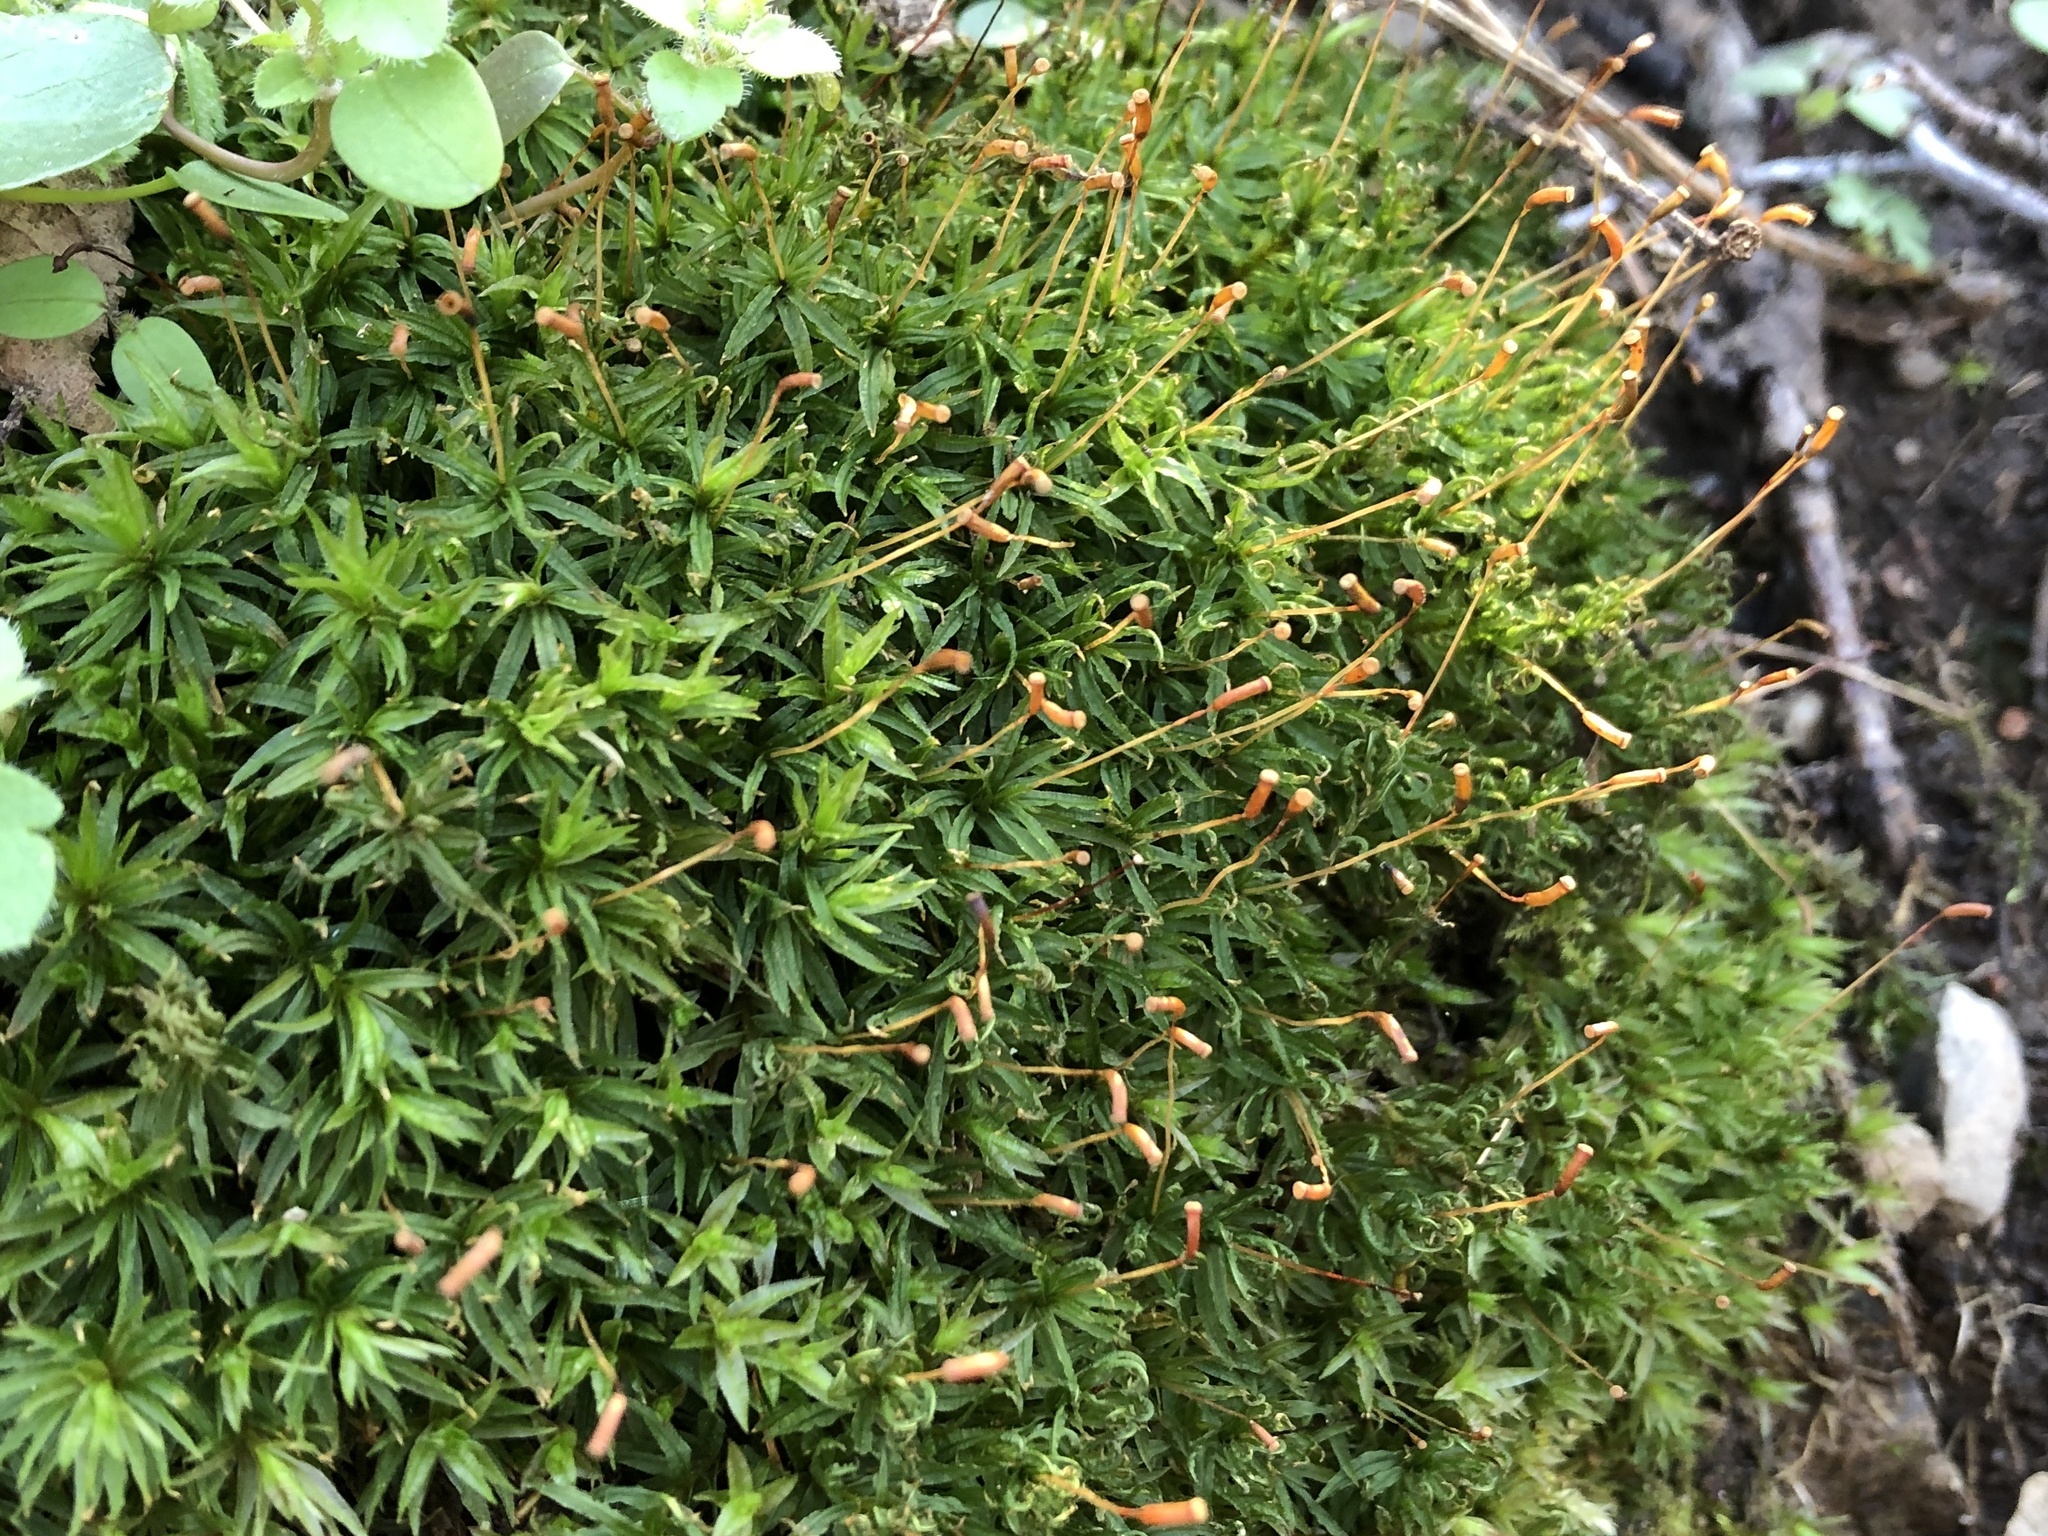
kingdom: Plantae
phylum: Bryophyta
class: Polytrichopsida
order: Polytrichales
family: Polytrichaceae
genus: Atrichum
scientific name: Atrichum undulatum
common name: Common smoothcap
